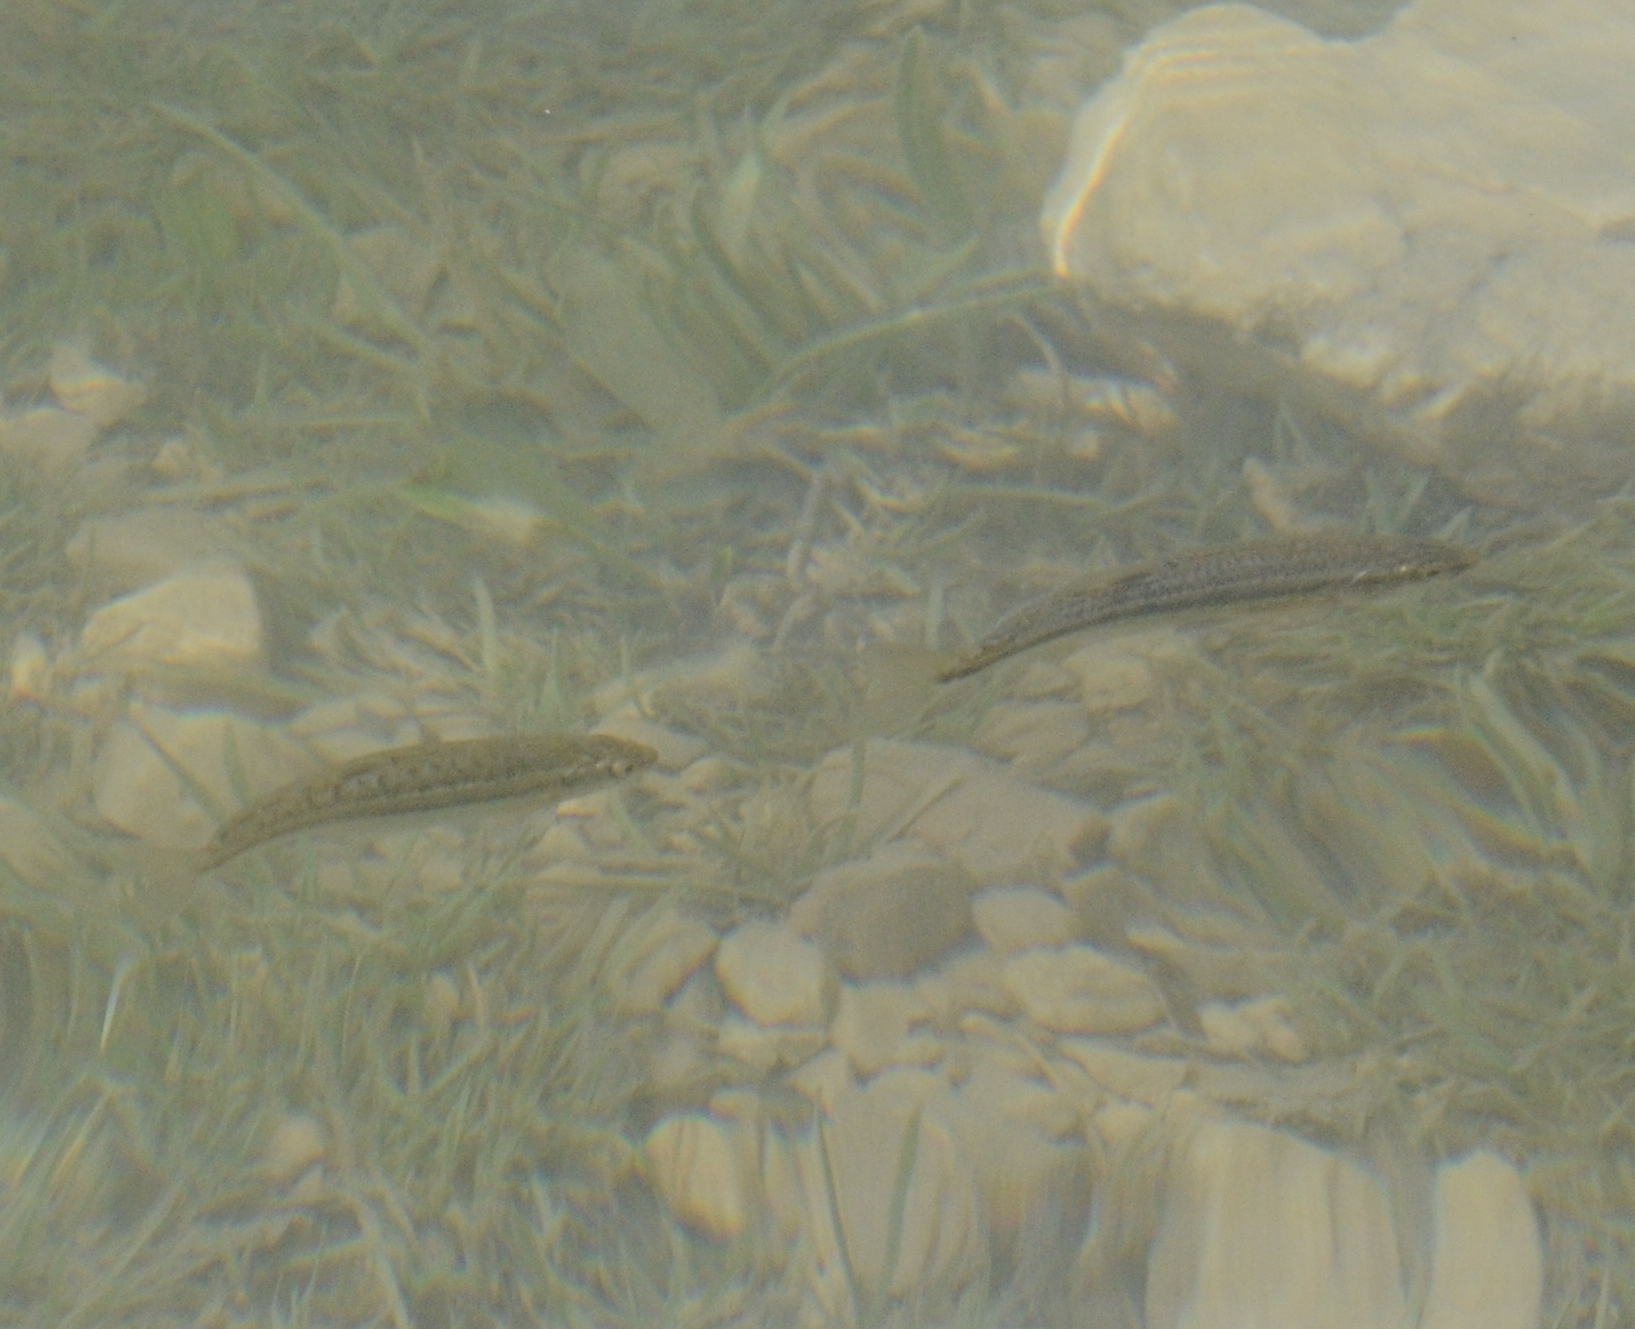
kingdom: Animalia
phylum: Chordata
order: Cypriniformes
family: Cyprinidae
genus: Phoxinus
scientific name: Phoxinus phoxinus
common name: Minnow
